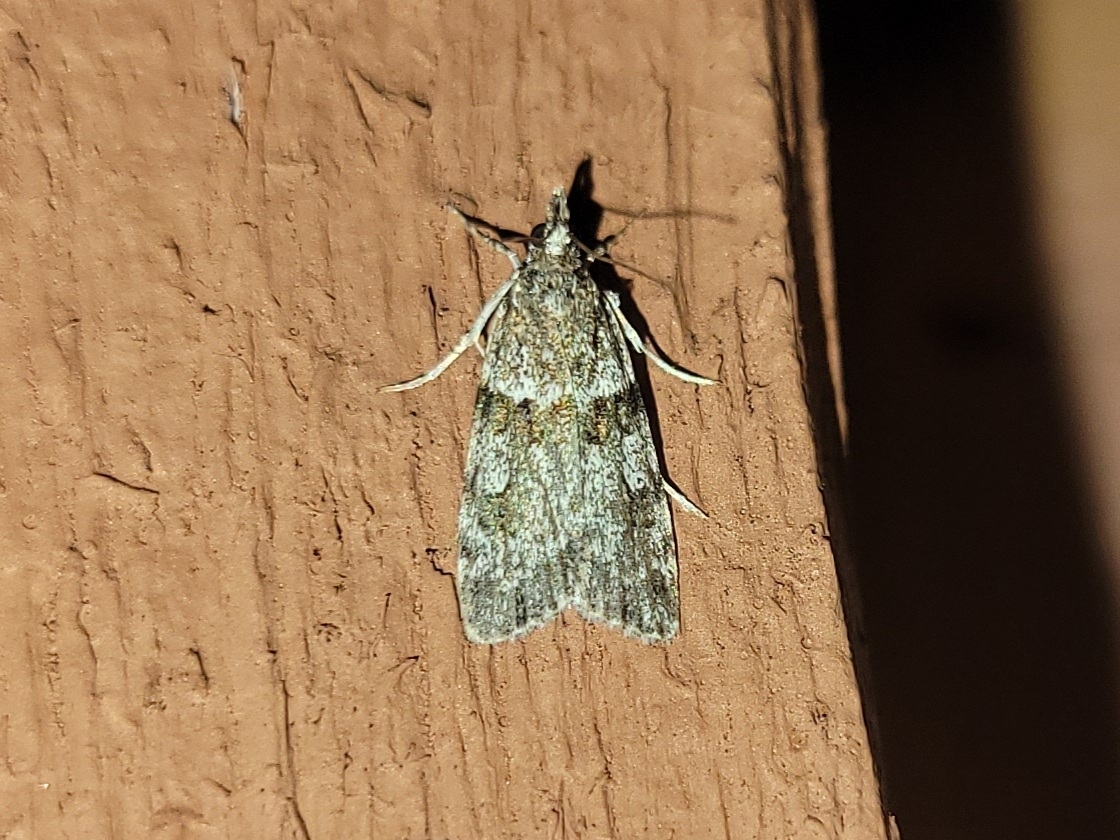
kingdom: Animalia
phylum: Arthropoda
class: Insecta
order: Lepidoptera
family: Crambidae
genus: Scoparia
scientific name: Scoparia biplagialis
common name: Double-striped scoparia moth
